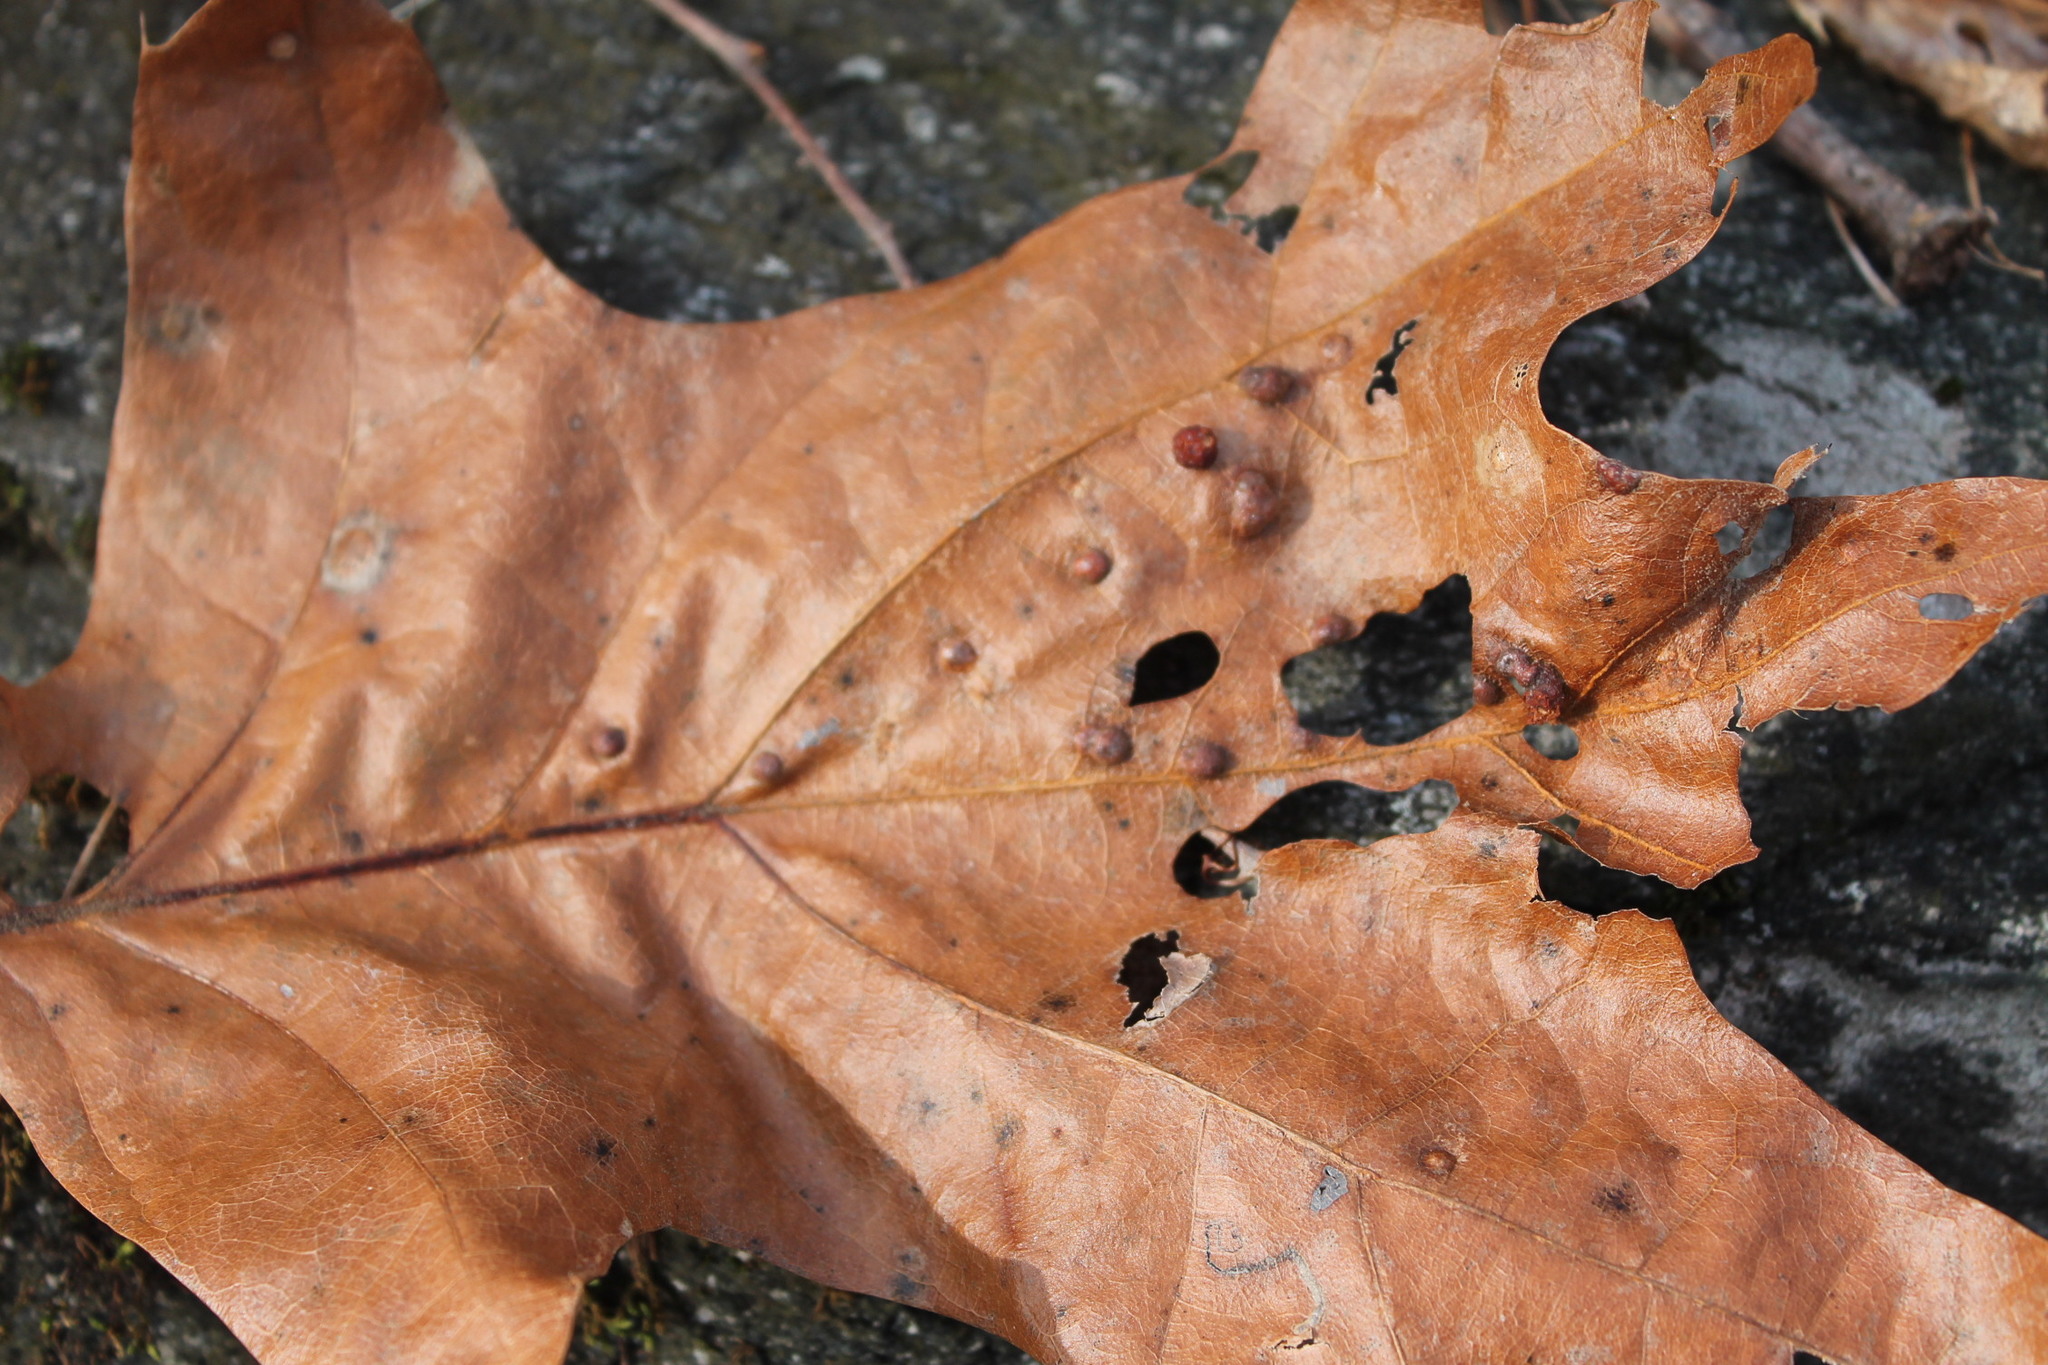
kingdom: Animalia
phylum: Arthropoda
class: Insecta
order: Diptera
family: Cecidomyiidae
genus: Polystepha
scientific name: Polystepha pilulae
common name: Oak leaf gall midge
